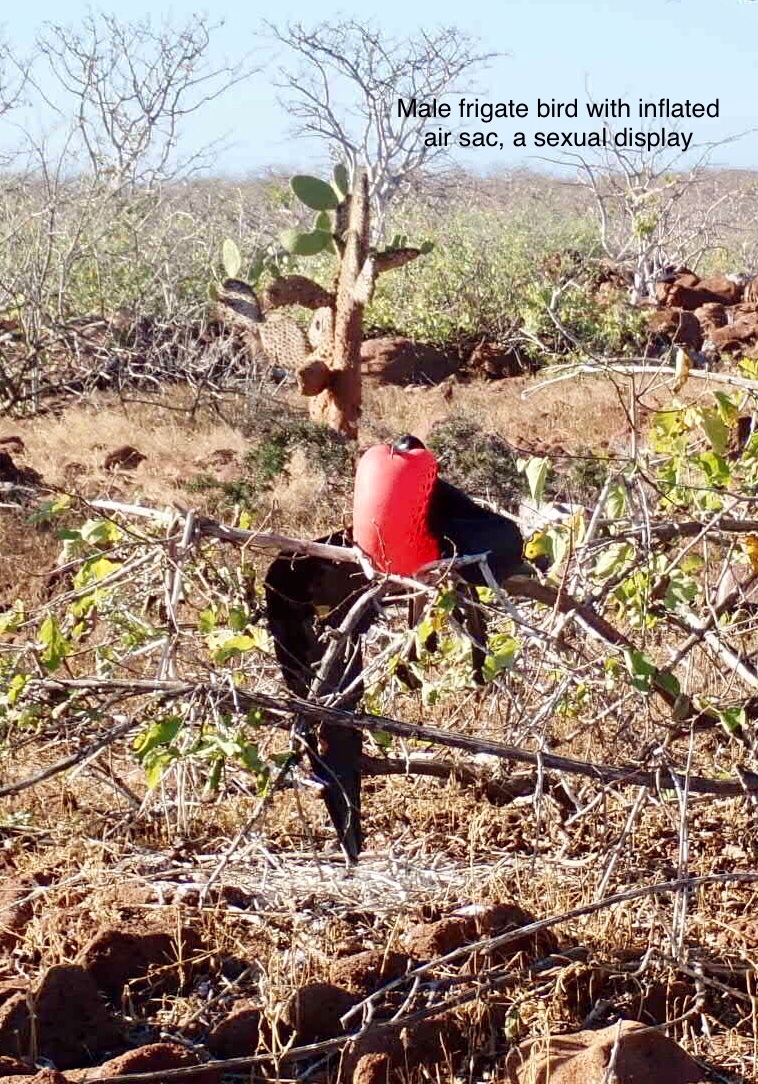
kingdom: Animalia
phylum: Chordata
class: Aves
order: Suliformes
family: Fregatidae
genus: Fregata
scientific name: Fregata magnificens
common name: Magnificent frigatebird
